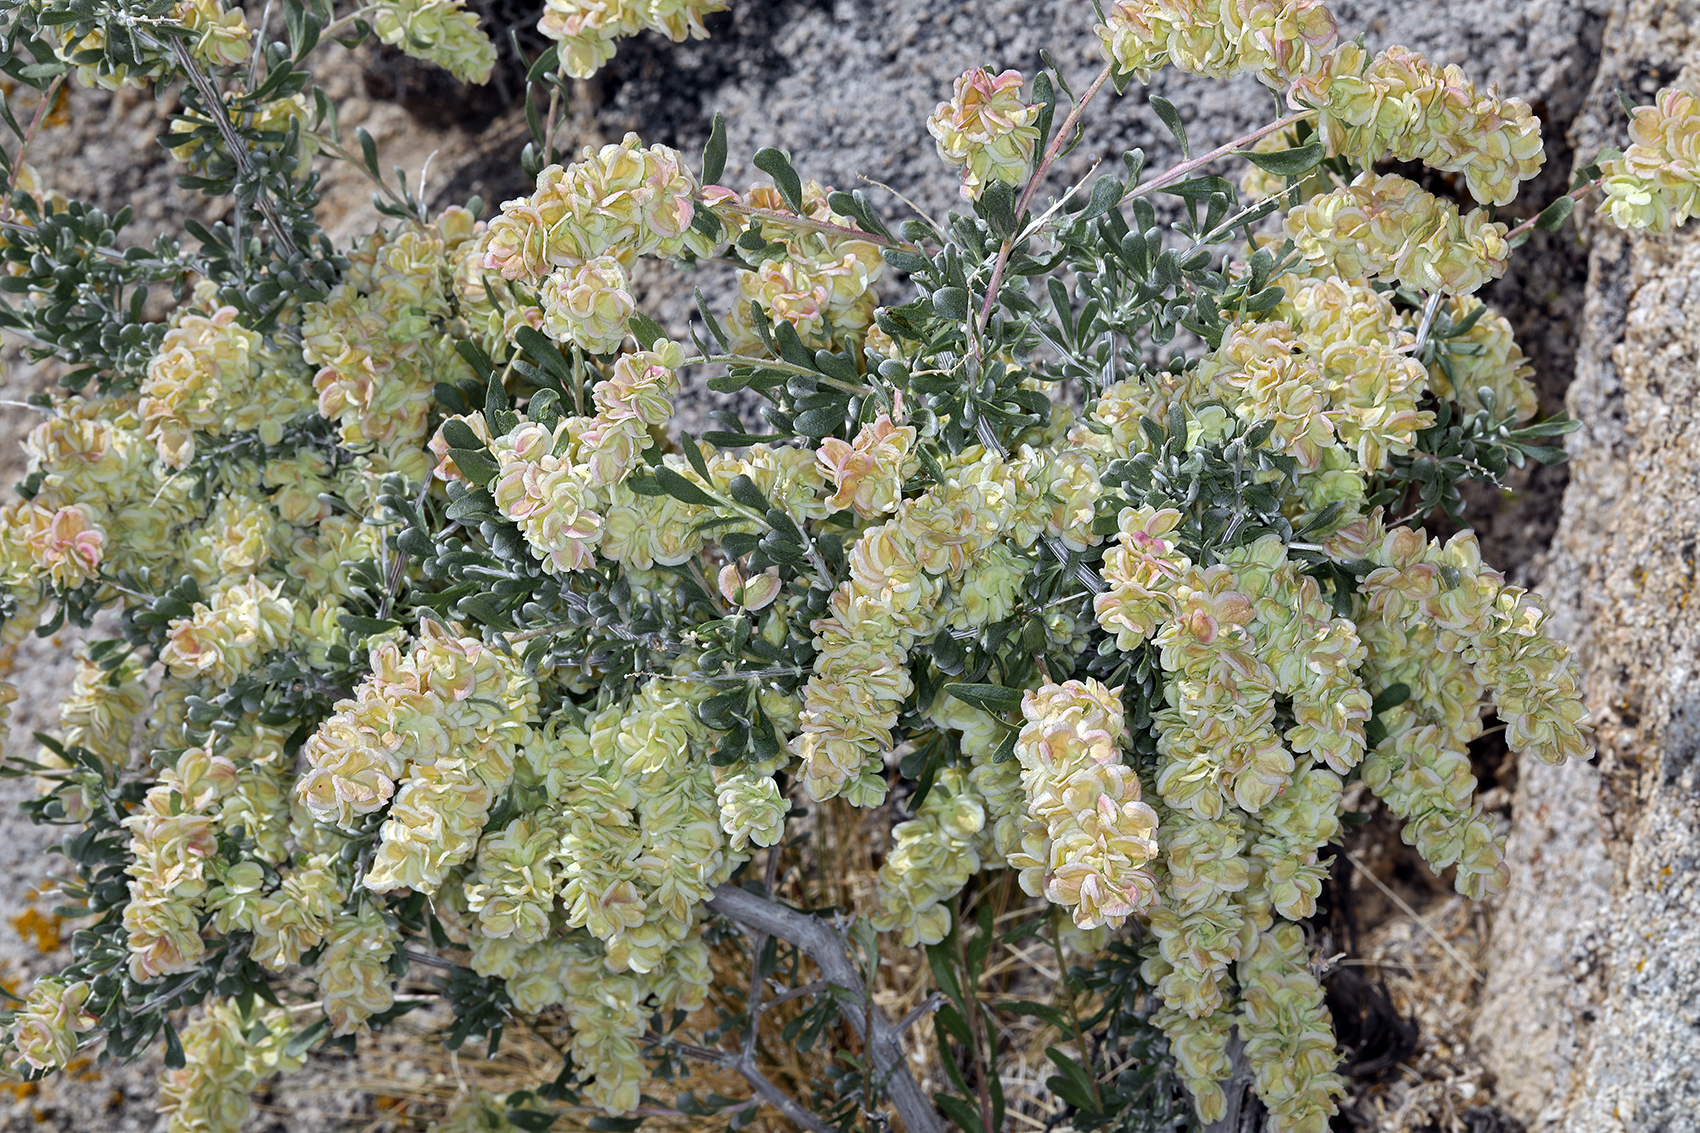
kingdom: Plantae
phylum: Tracheophyta
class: Magnoliopsida
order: Caryophyllales
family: Amaranthaceae
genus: Grayia
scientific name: Grayia spinosa
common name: Spiny hopsage
